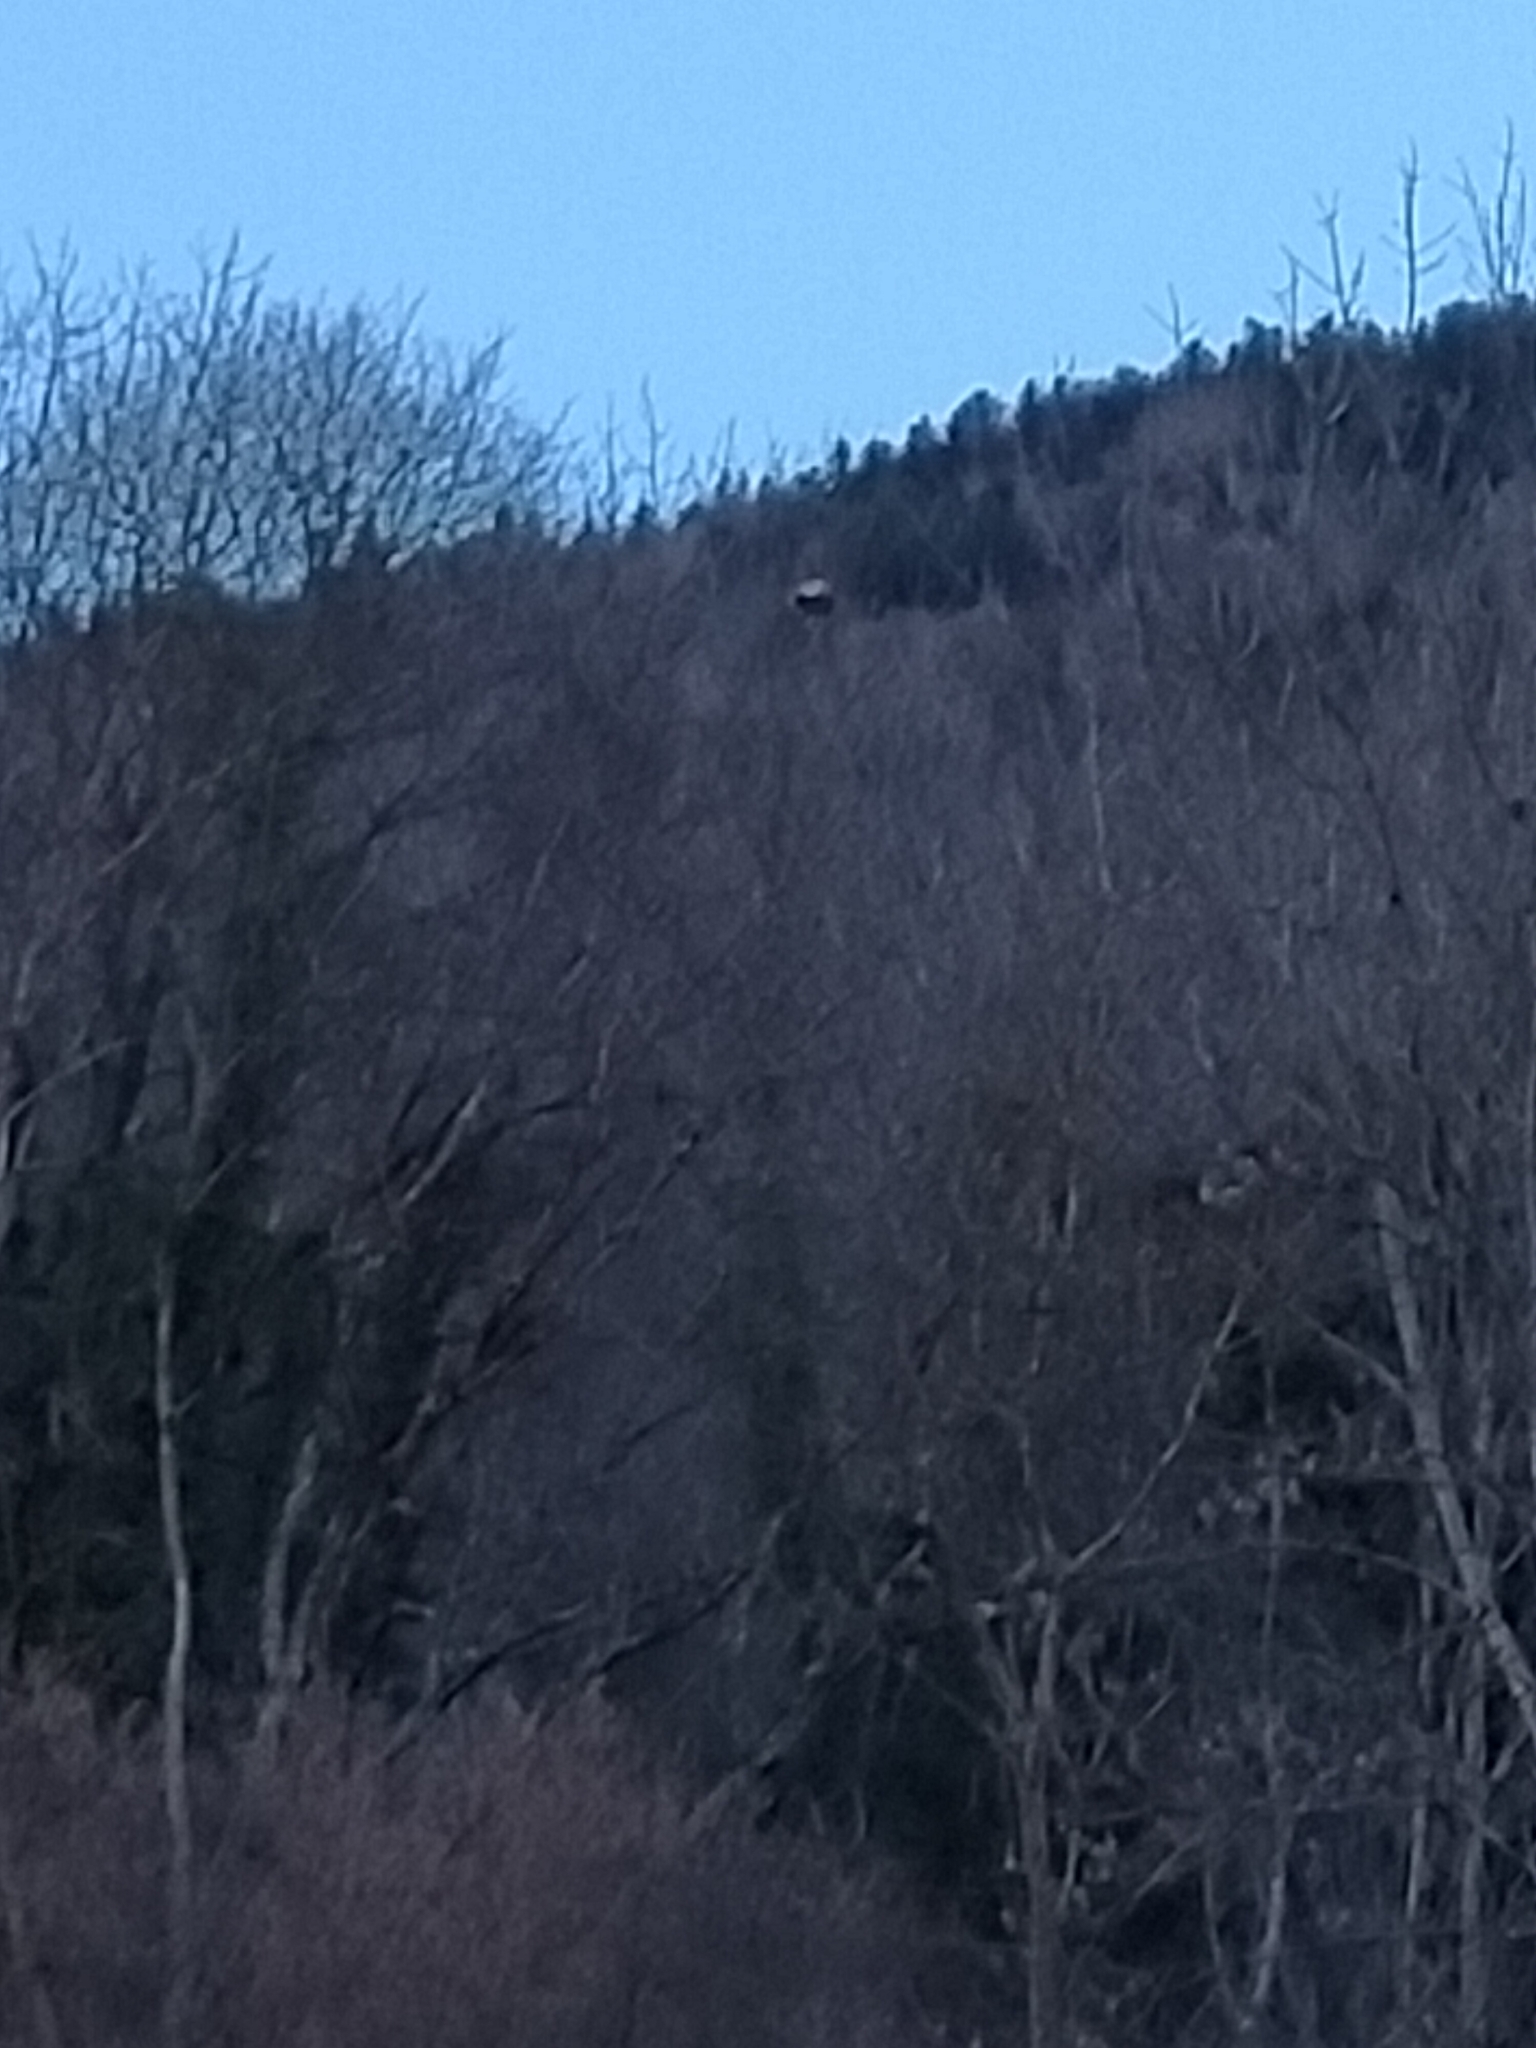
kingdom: Animalia
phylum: Arthropoda
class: Insecta
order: Hymenoptera
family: Vespidae
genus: Vespa
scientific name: Vespa velutina
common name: Asian hornet
